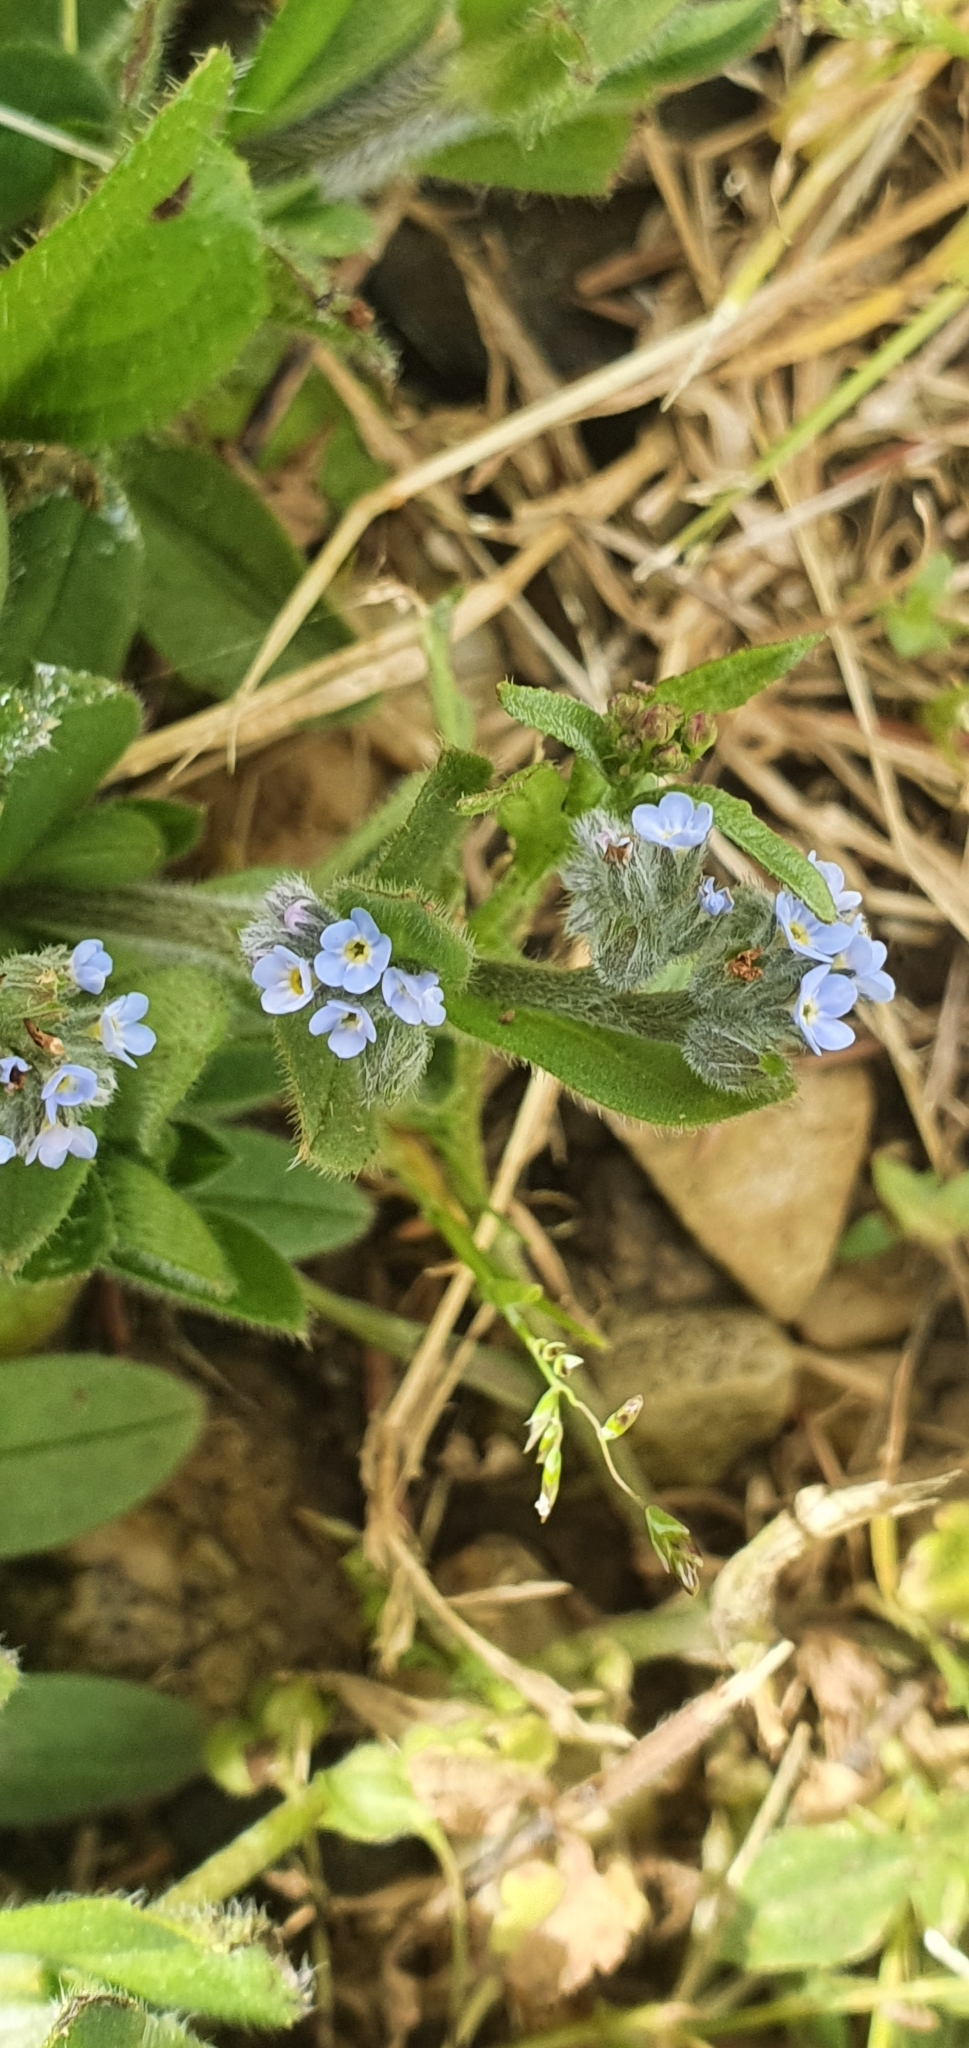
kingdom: Plantae
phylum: Tracheophyta
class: Magnoliopsida
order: Boraginales
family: Boraginaceae
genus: Myosotis
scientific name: Myosotis arvensis
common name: Field forget-me-not
